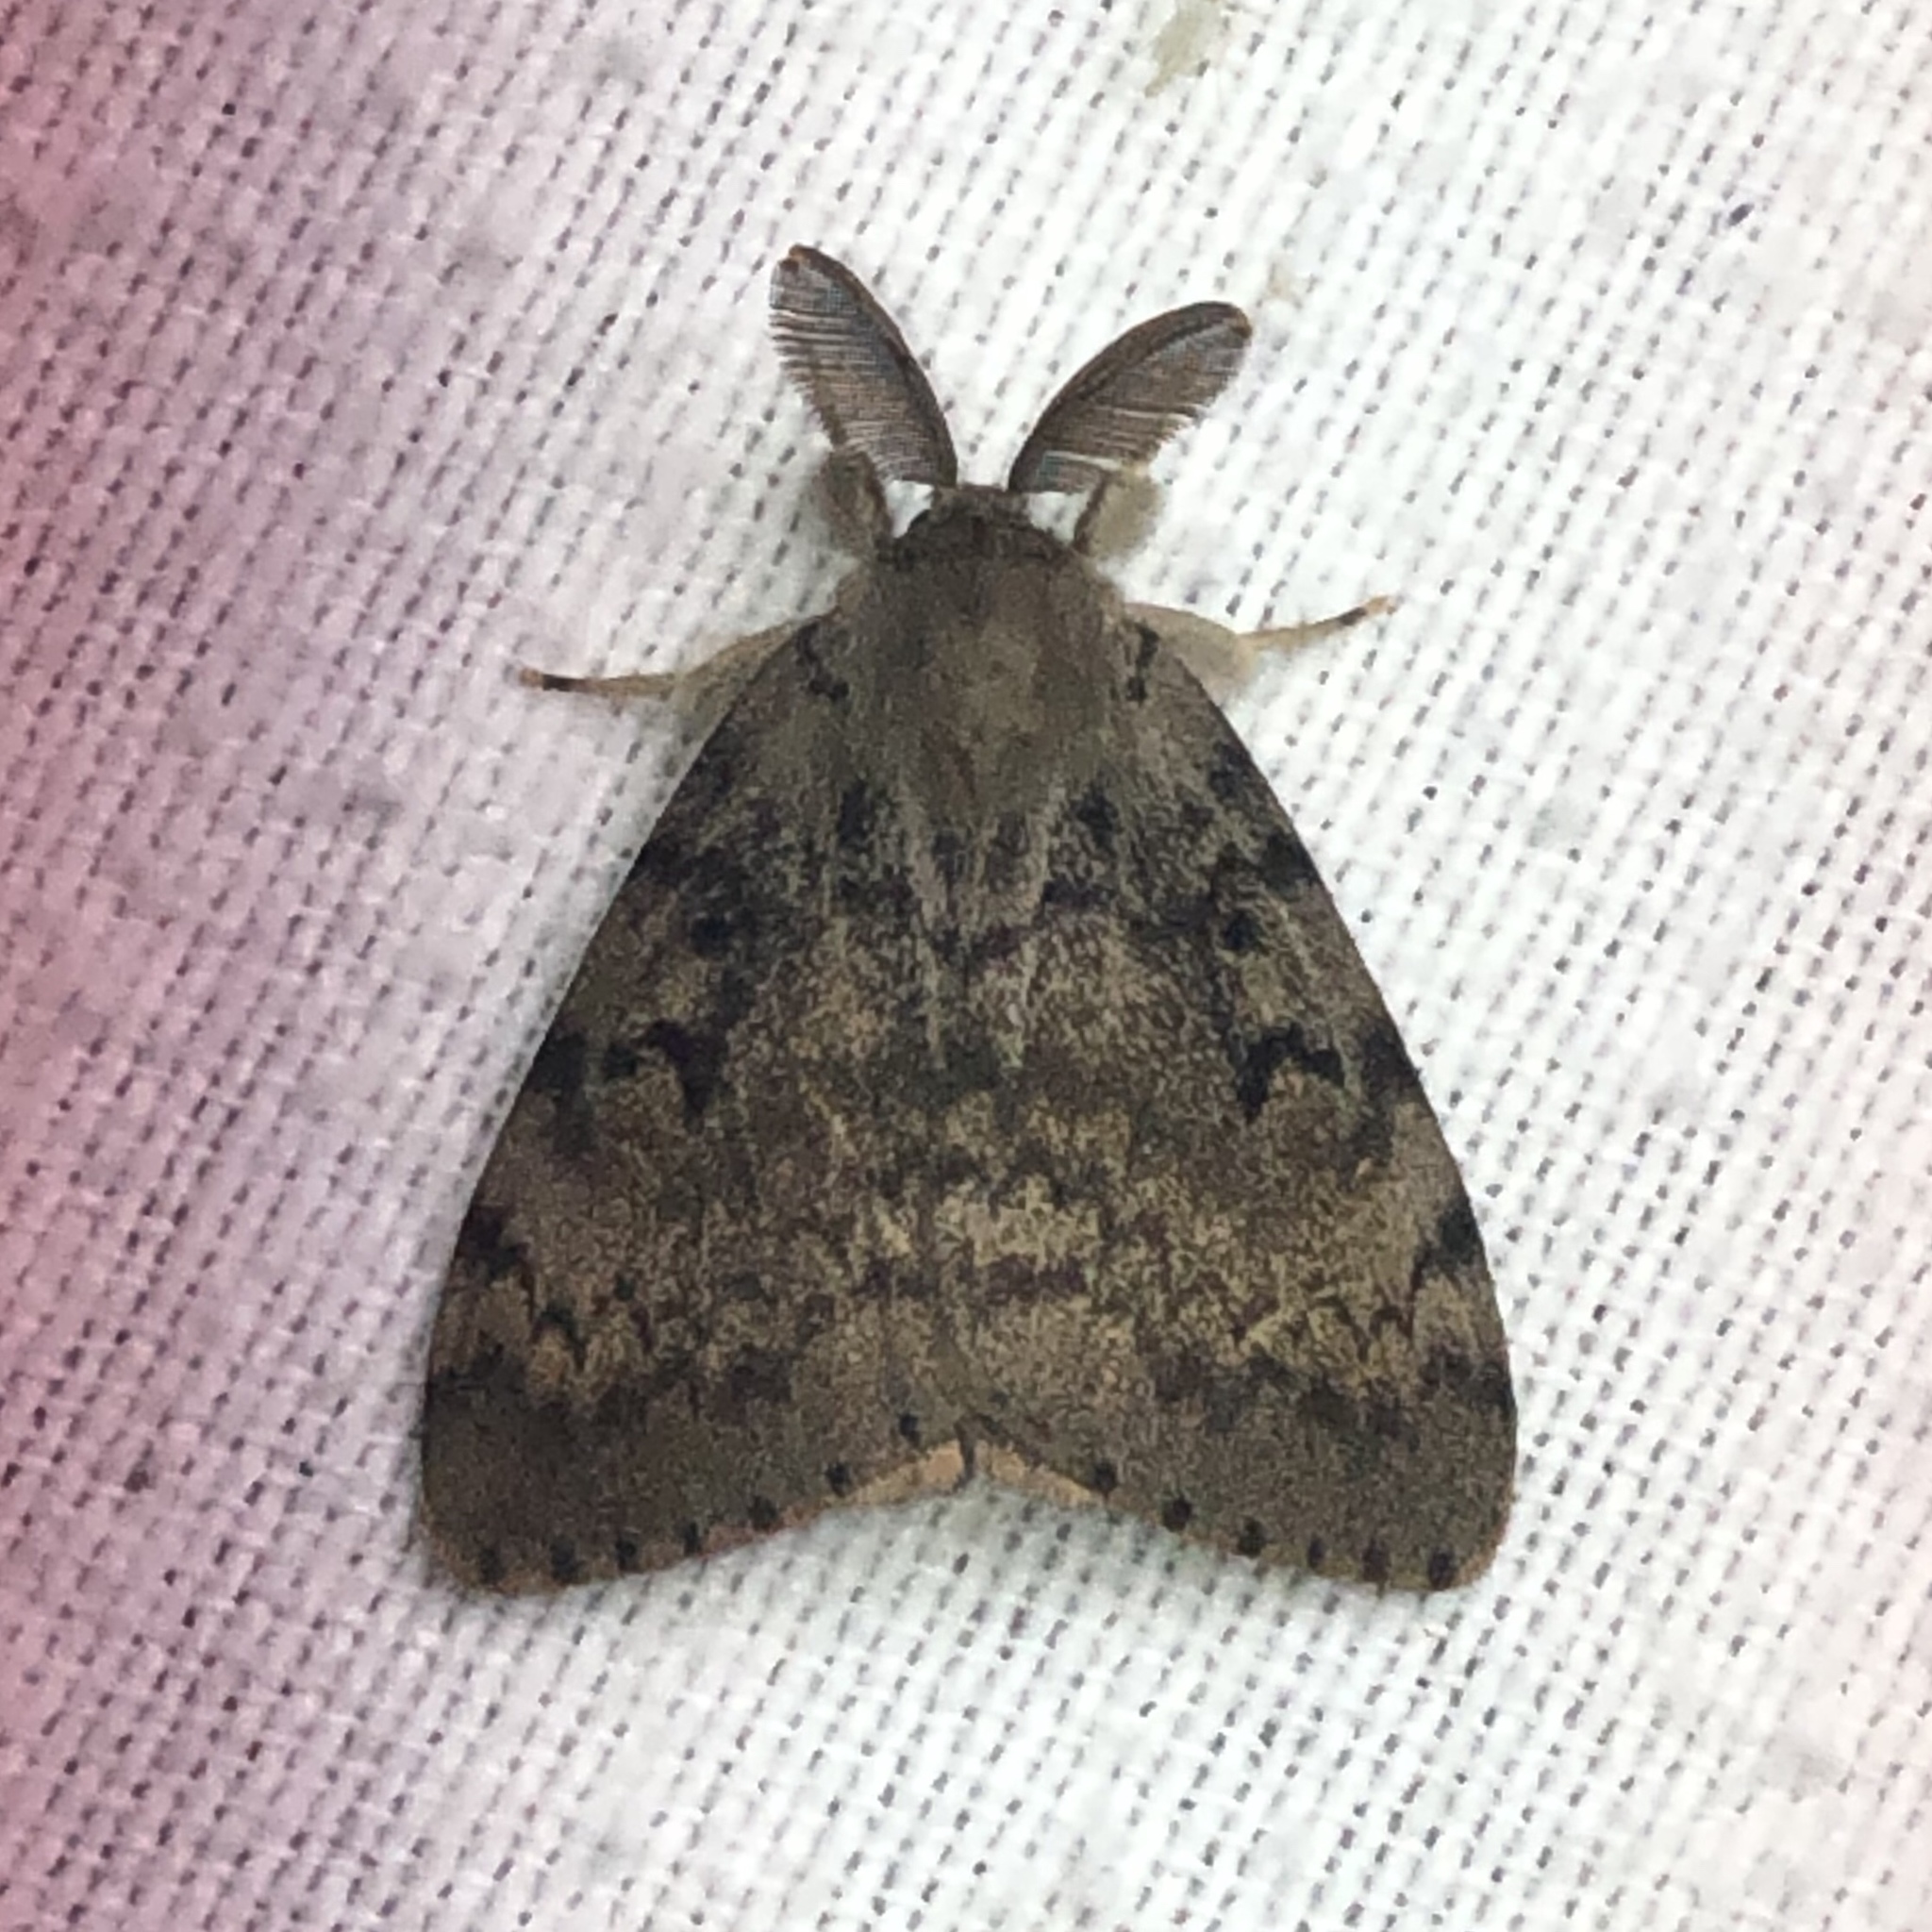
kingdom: Animalia
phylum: Arthropoda
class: Insecta
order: Lepidoptera
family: Erebidae
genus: Lymantria
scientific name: Lymantria dispar
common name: Gypsy moth
